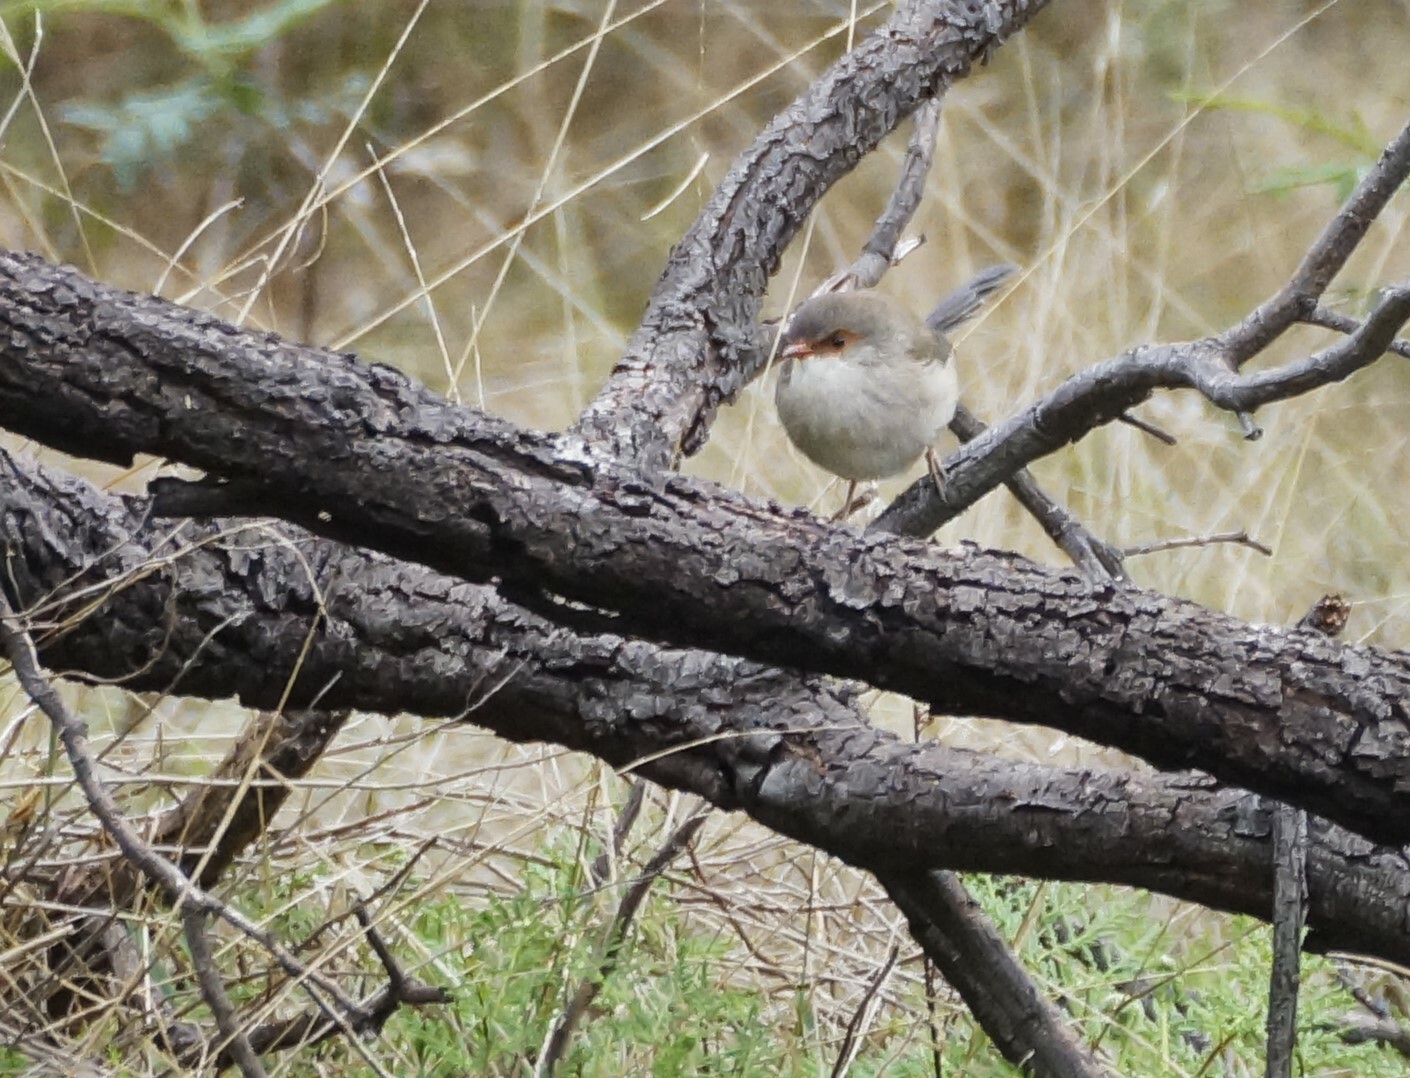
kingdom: Animalia
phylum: Chordata
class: Aves
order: Passeriformes
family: Maluridae
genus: Malurus
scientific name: Malurus cyaneus
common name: Superb fairywren
